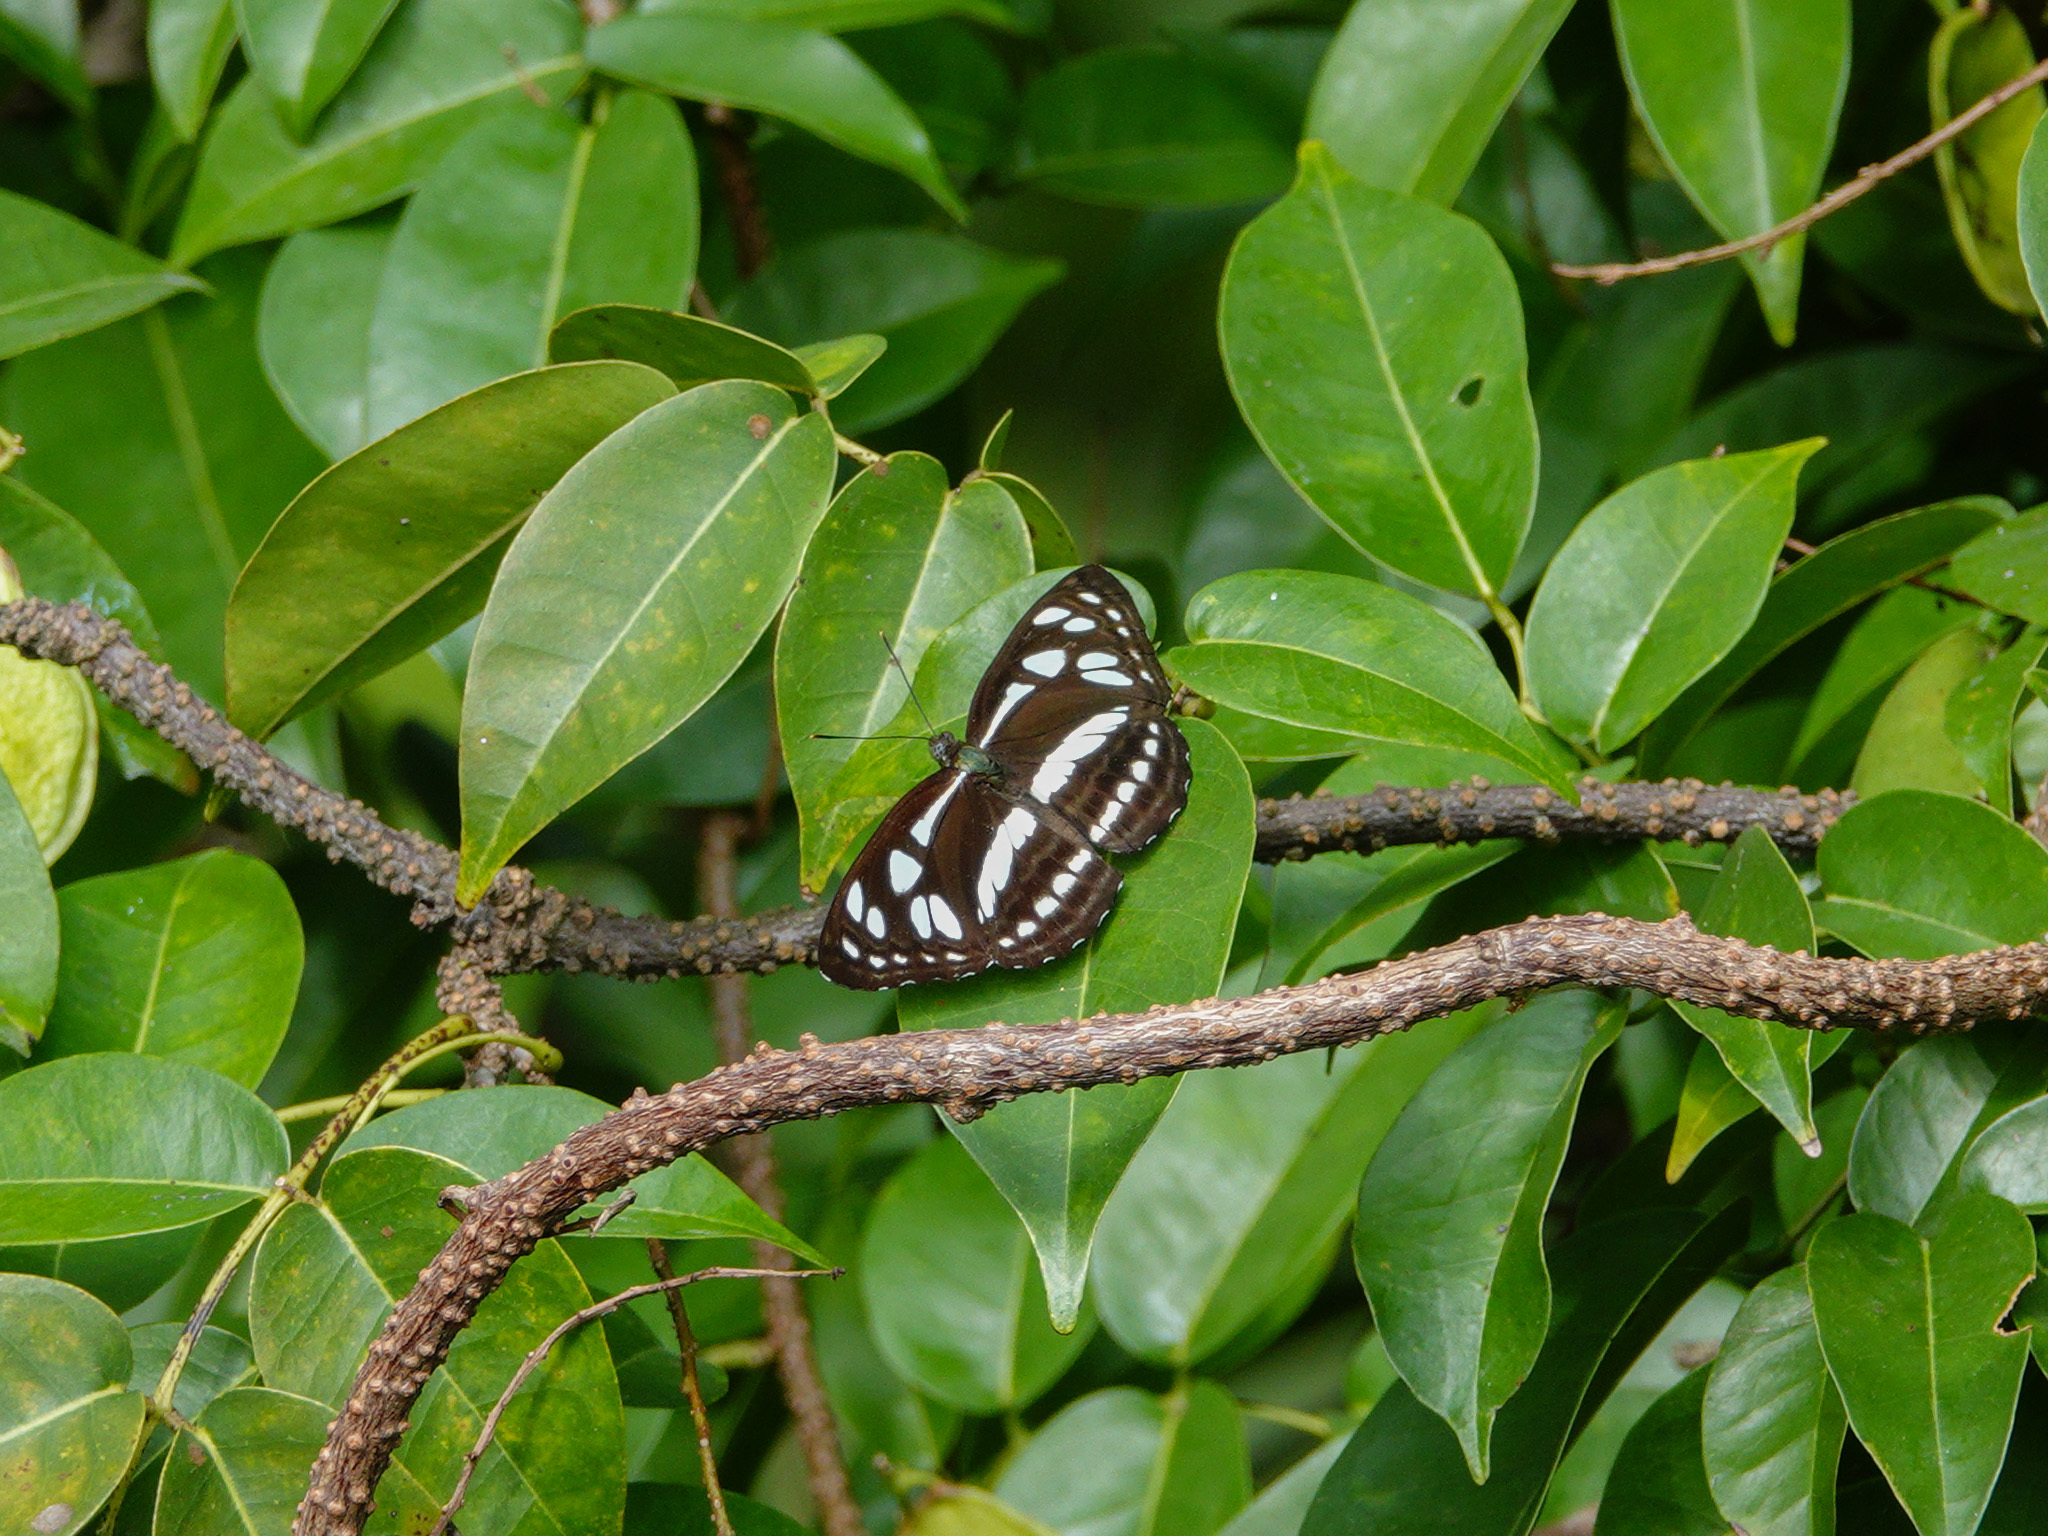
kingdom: Animalia
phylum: Arthropoda
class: Insecta
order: Lepidoptera
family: Nymphalidae
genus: Phaedyma
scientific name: Phaedyma columella
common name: Short banded sailer
